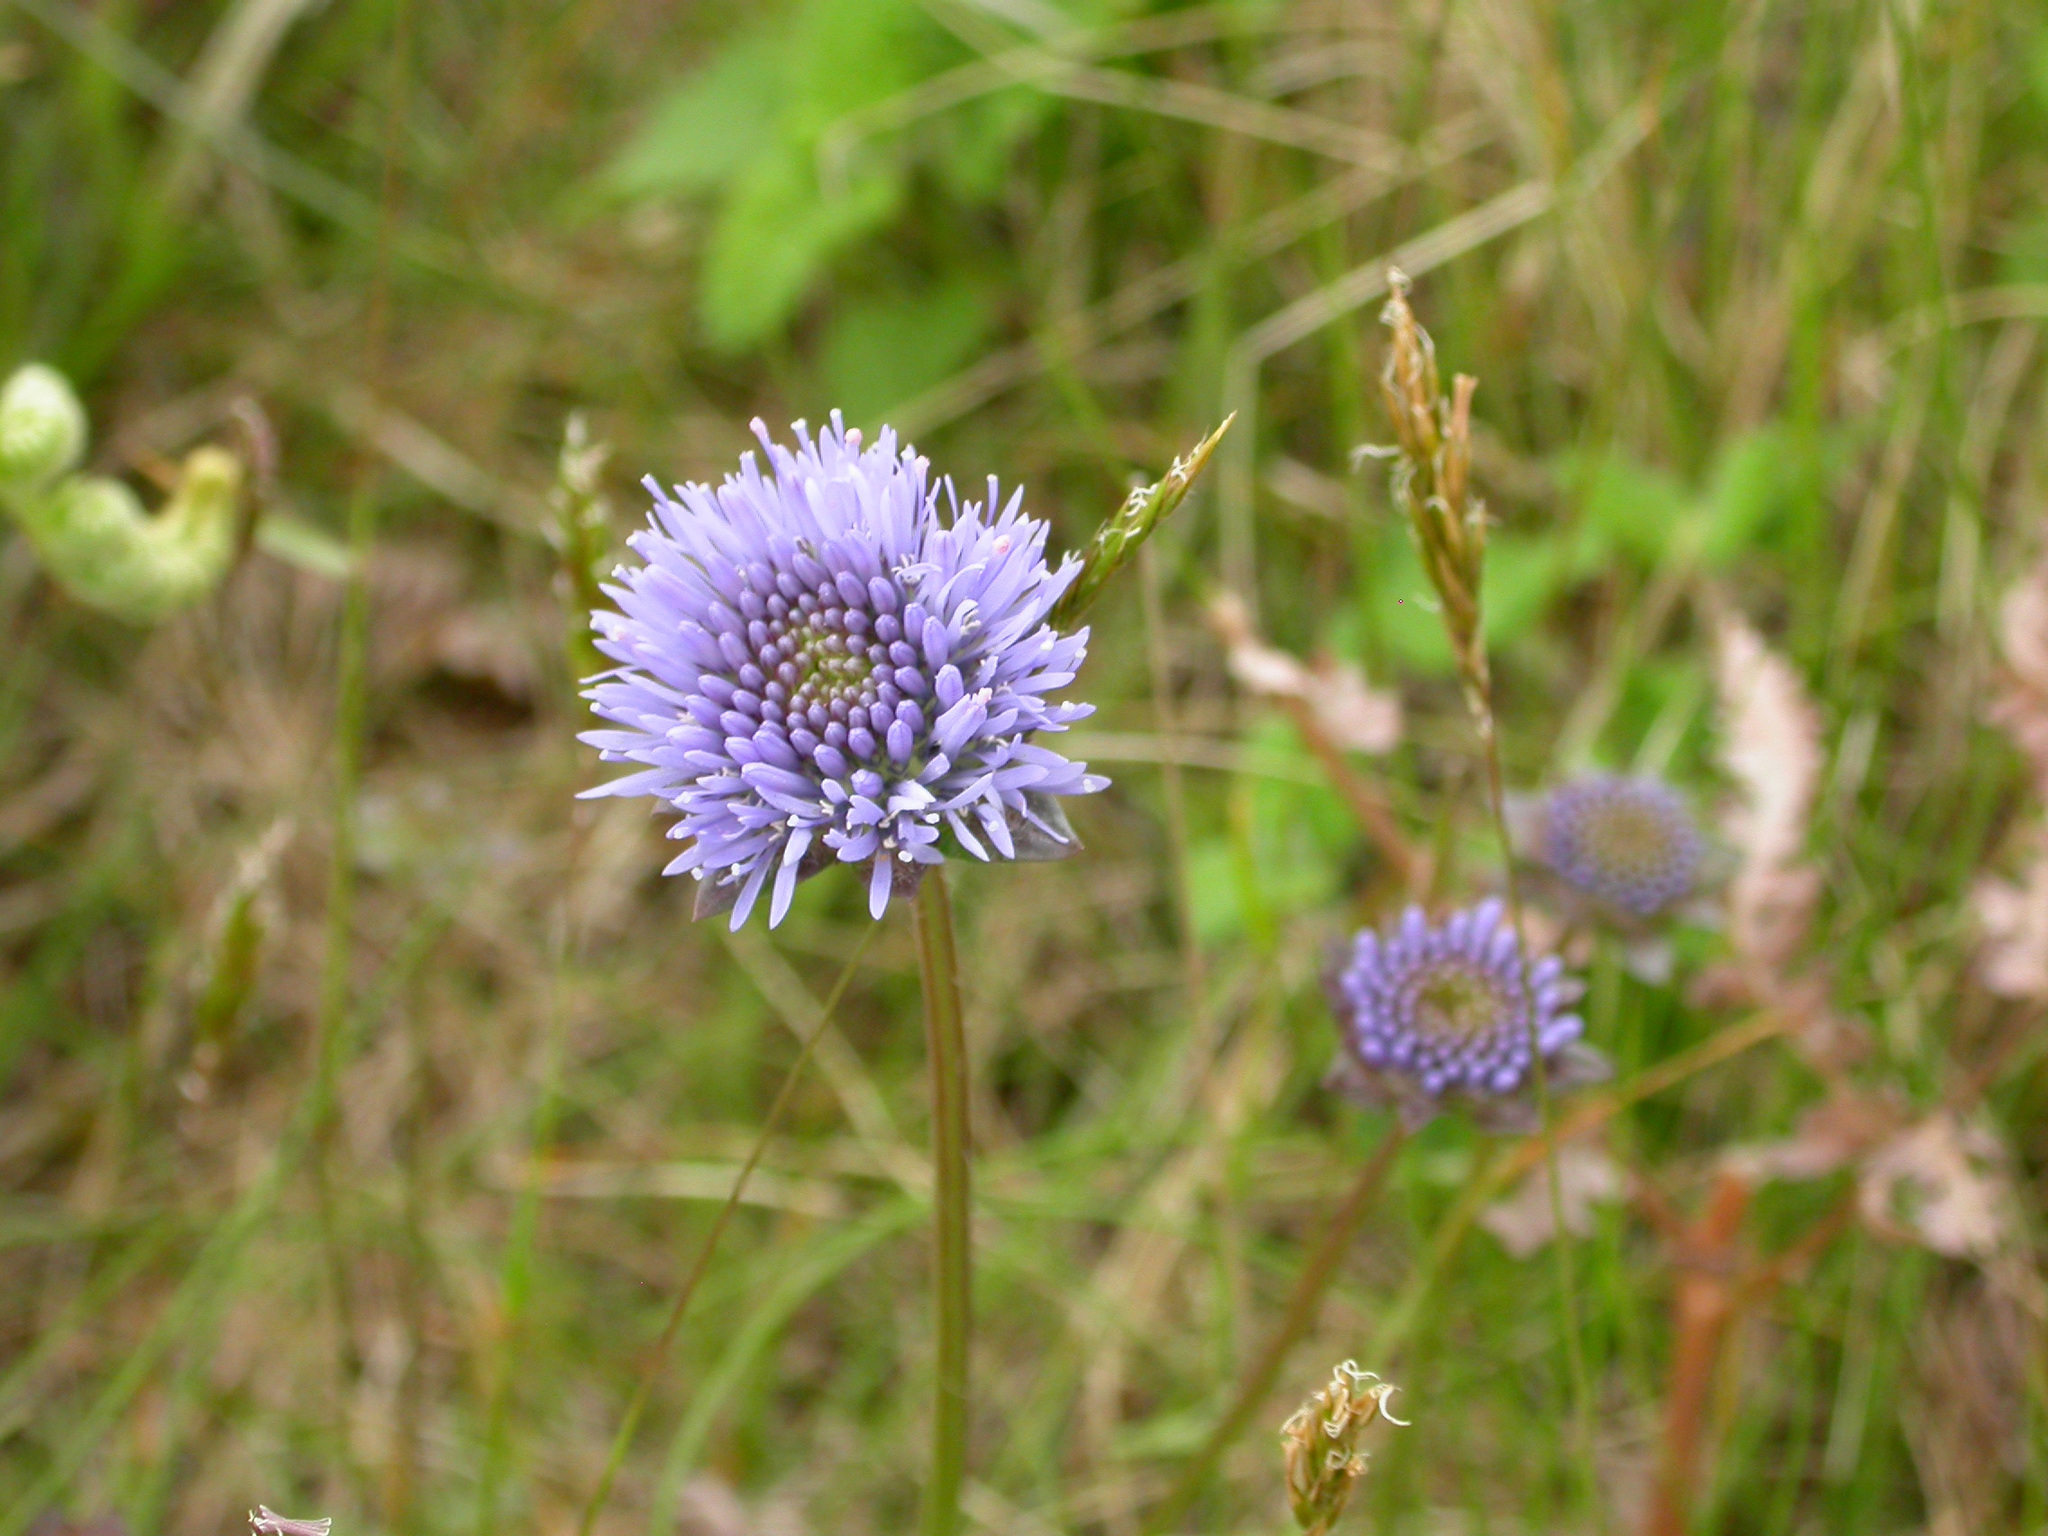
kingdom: Plantae
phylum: Tracheophyta
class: Magnoliopsida
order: Asterales
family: Campanulaceae
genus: Jasione
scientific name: Jasione montana
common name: Sheep's-bit
